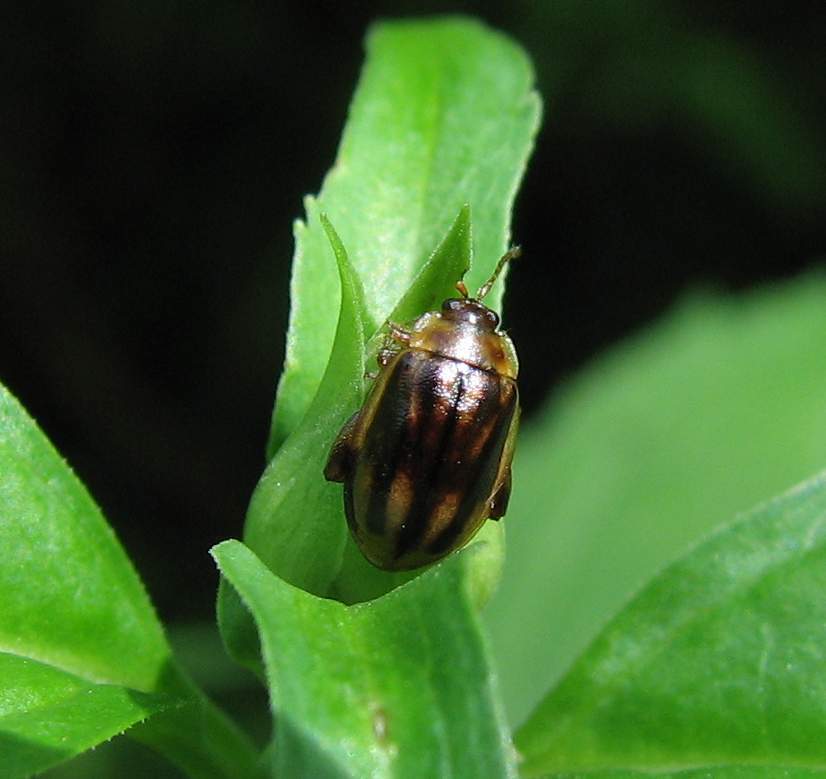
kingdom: Animalia
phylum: Arthropoda
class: Insecta
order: Coleoptera
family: Chrysomelidae
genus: Capraita
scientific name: Capraita subvittata
